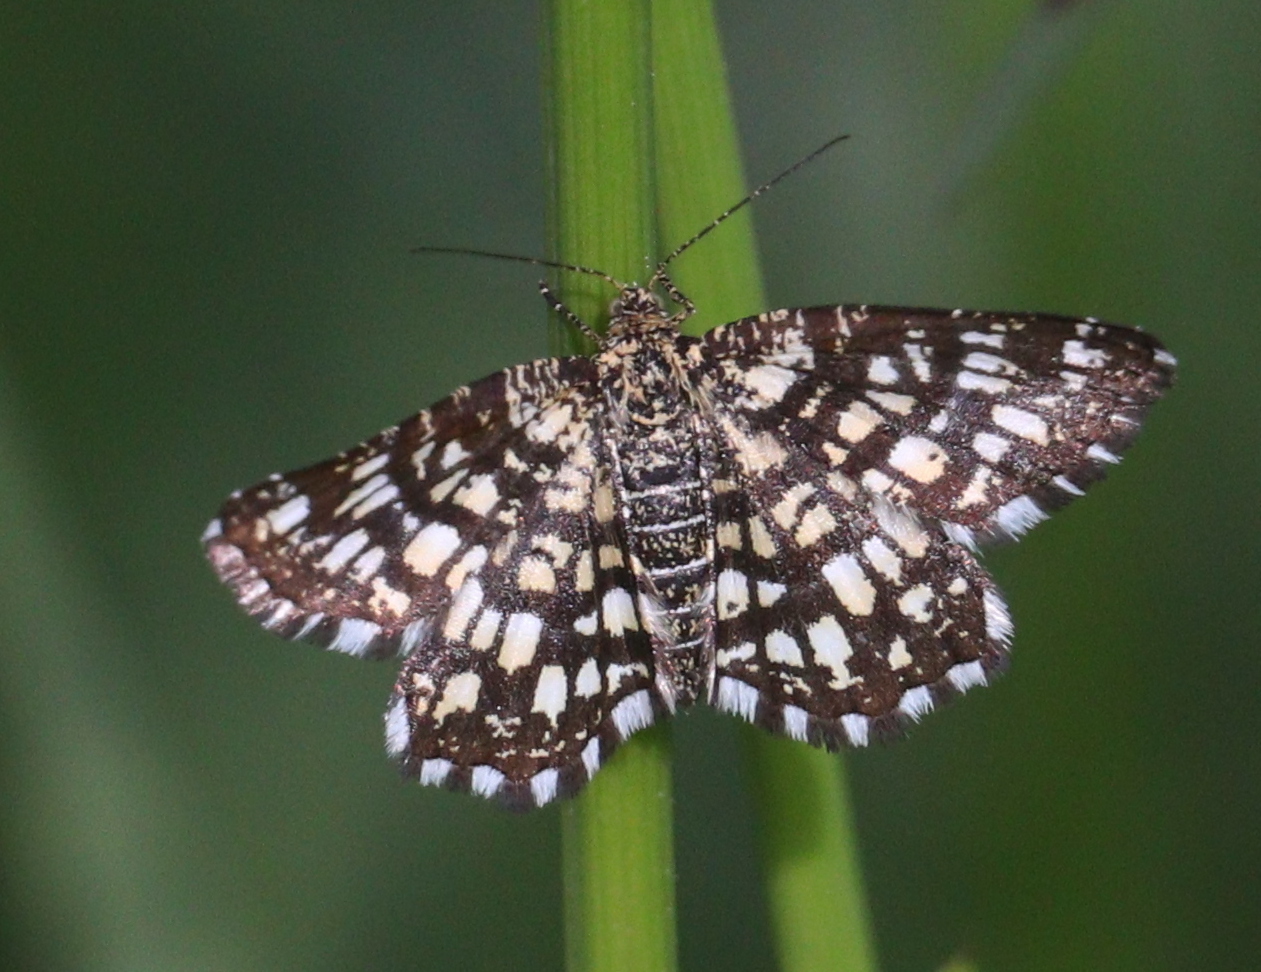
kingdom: Animalia
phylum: Arthropoda
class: Insecta
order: Lepidoptera
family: Geometridae
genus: Chiasmia
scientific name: Chiasmia clathrata
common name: Latticed heath
